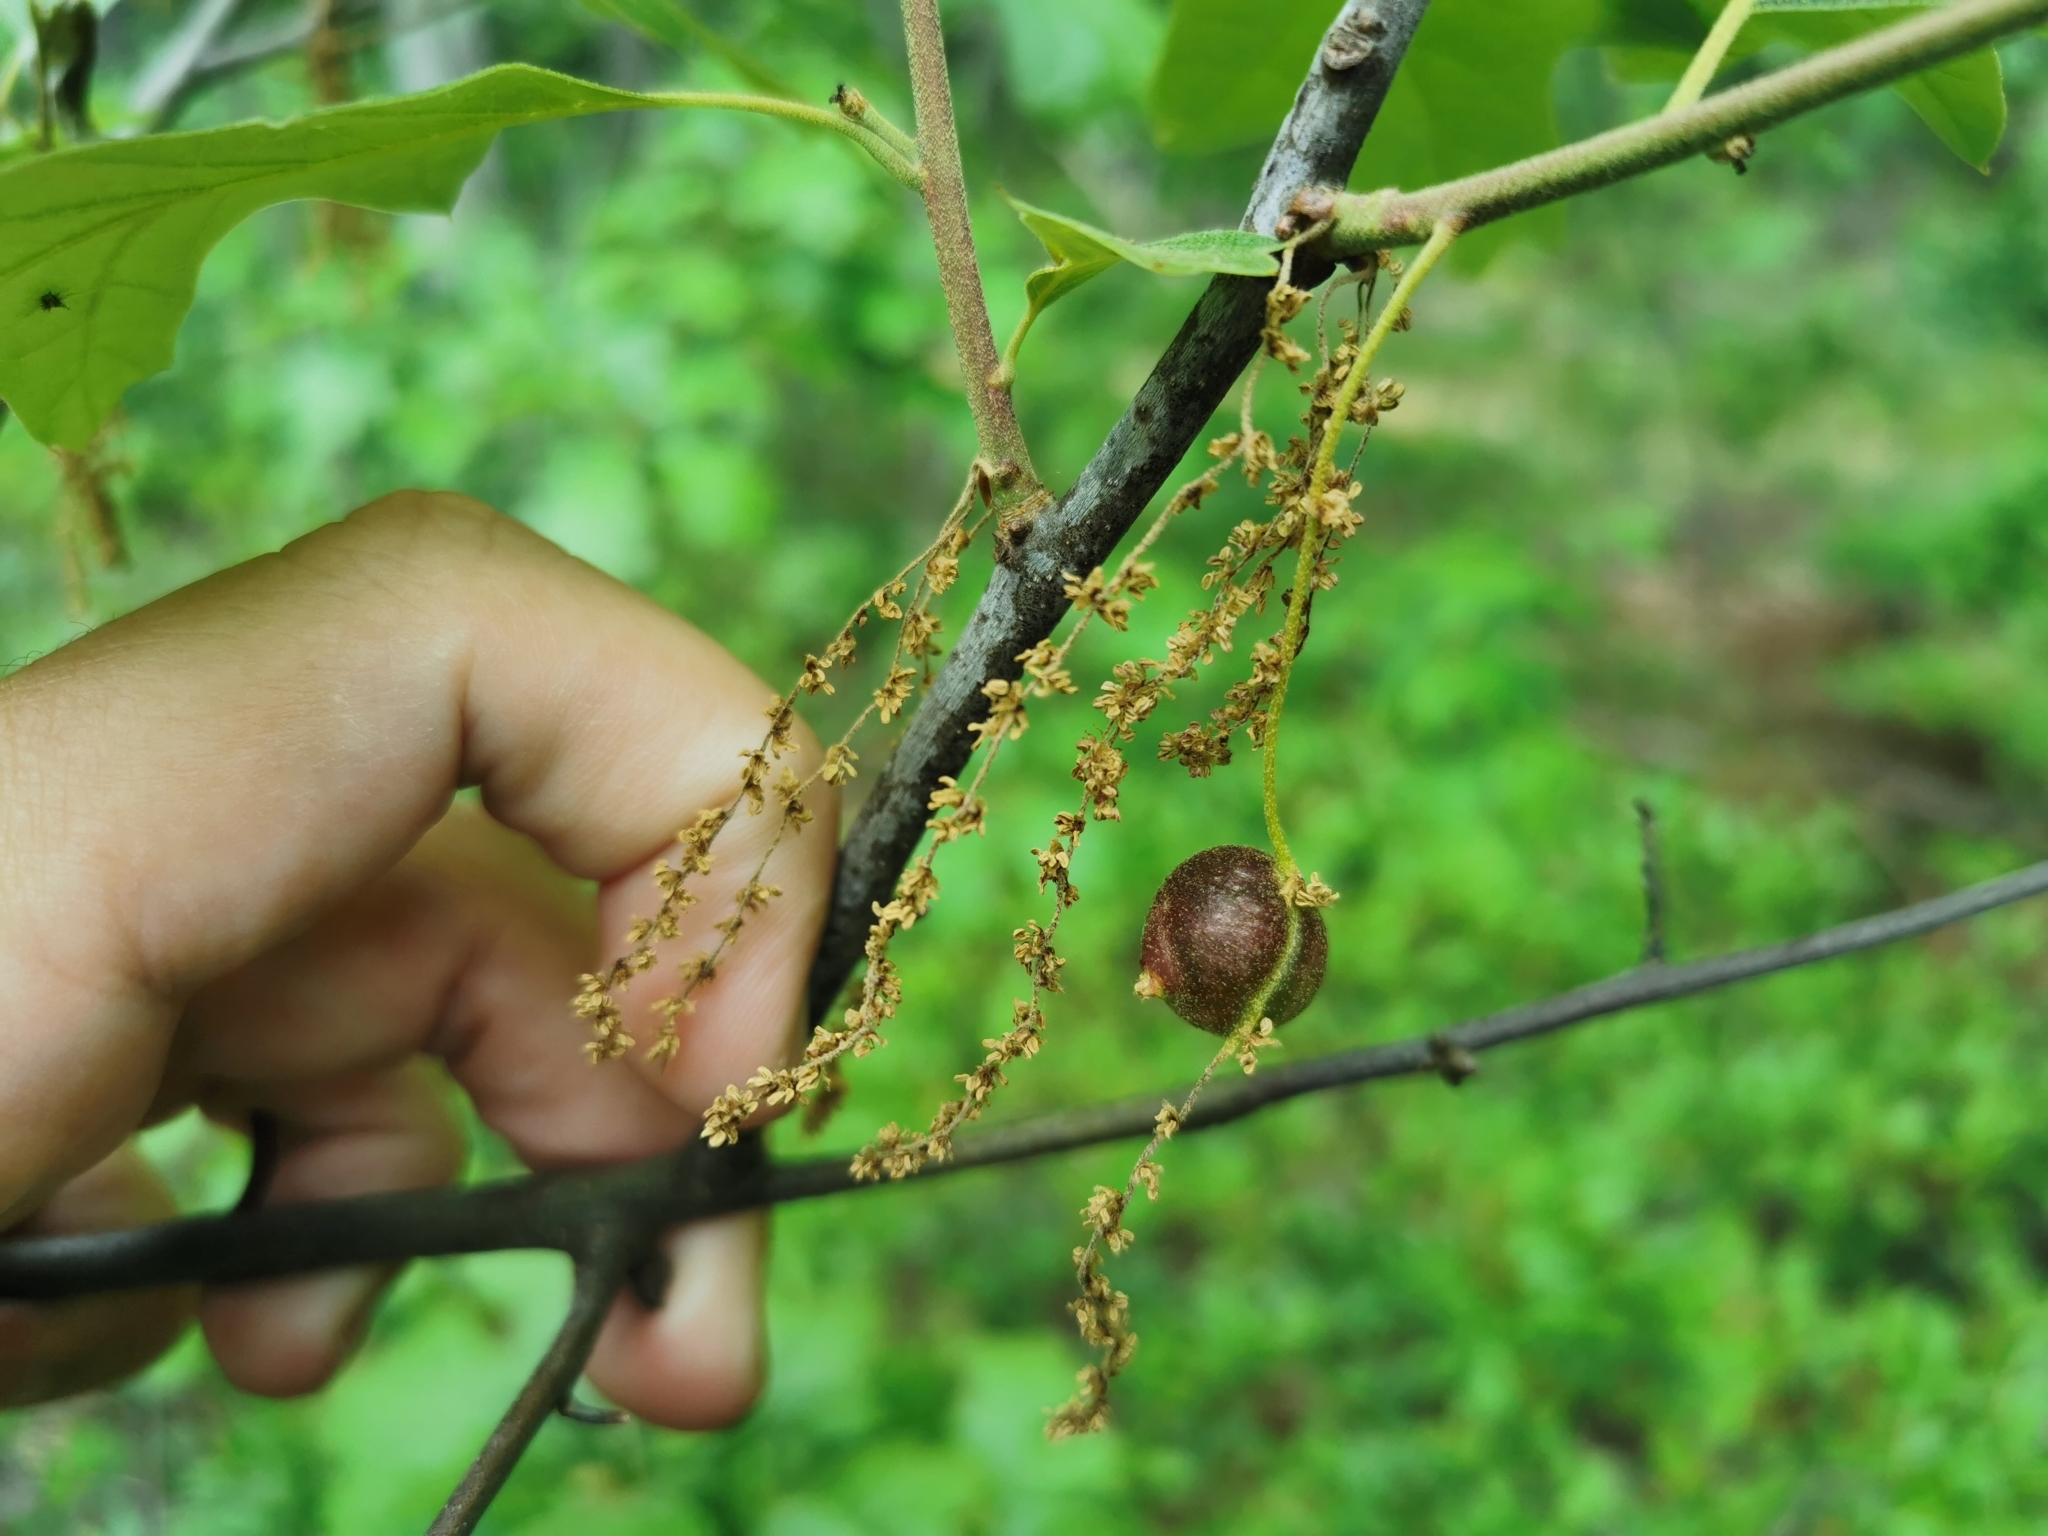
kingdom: Animalia
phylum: Arthropoda
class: Insecta
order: Hymenoptera
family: Cynipidae
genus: Dryocosmus
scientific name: Dryocosmus quercuspalustris
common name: Succulent oak gall wasp
